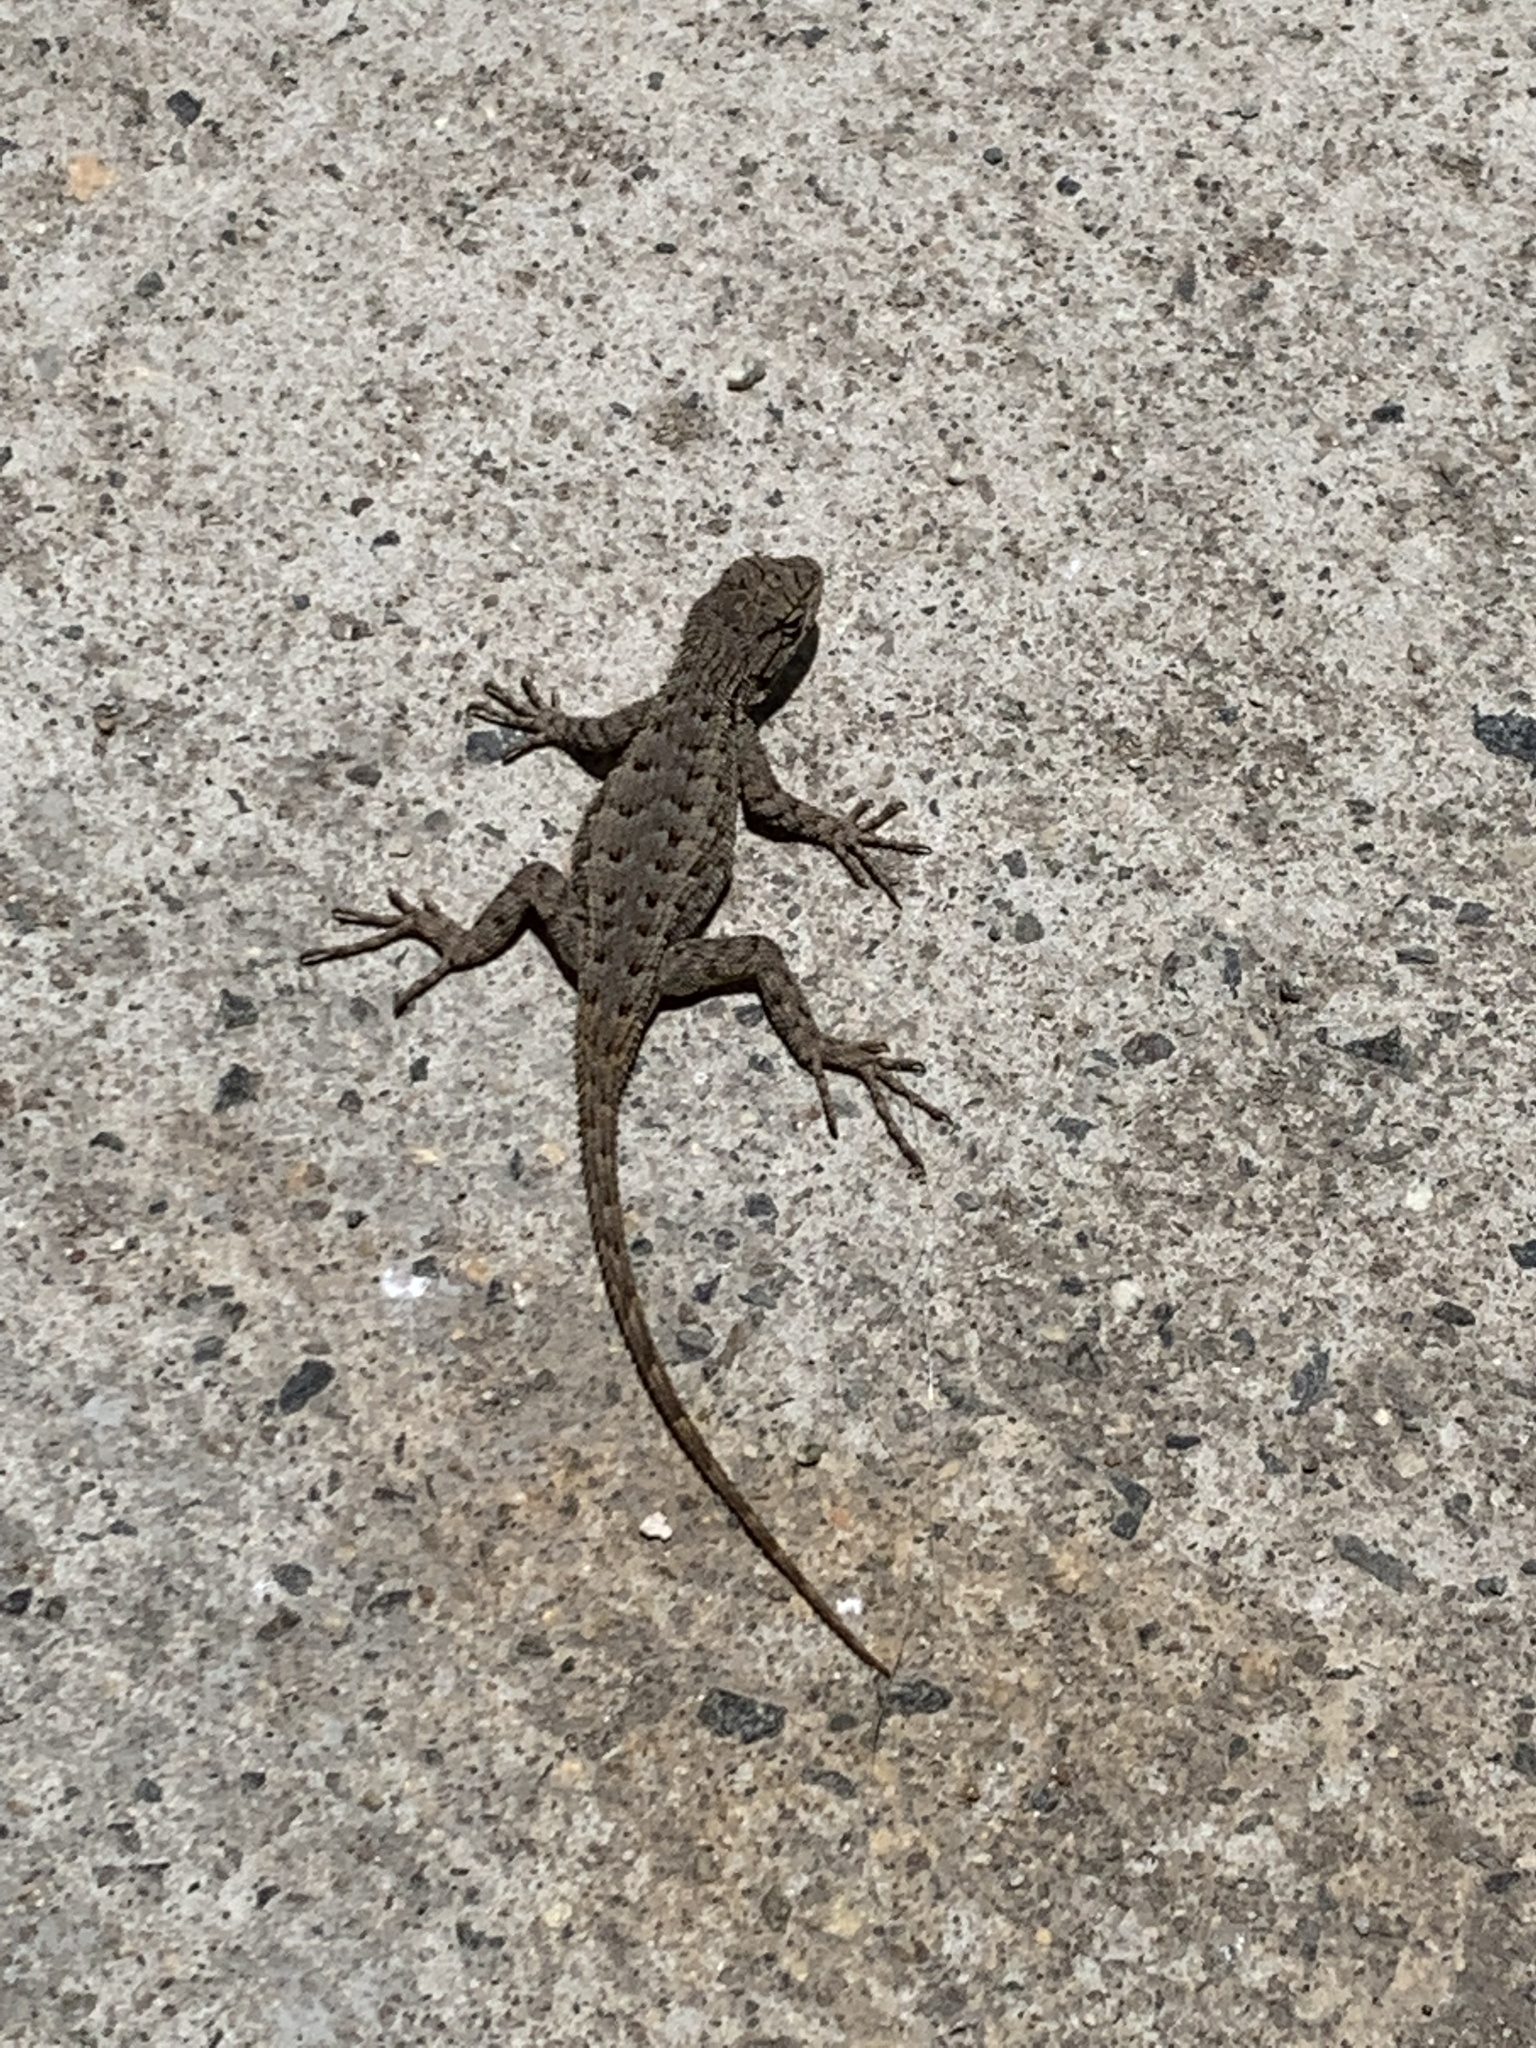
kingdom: Animalia
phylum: Chordata
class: Squamata
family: Phrynosomatidae
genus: Sceloporus
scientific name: Sceloporus occidentalis
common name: Western fence lizard
